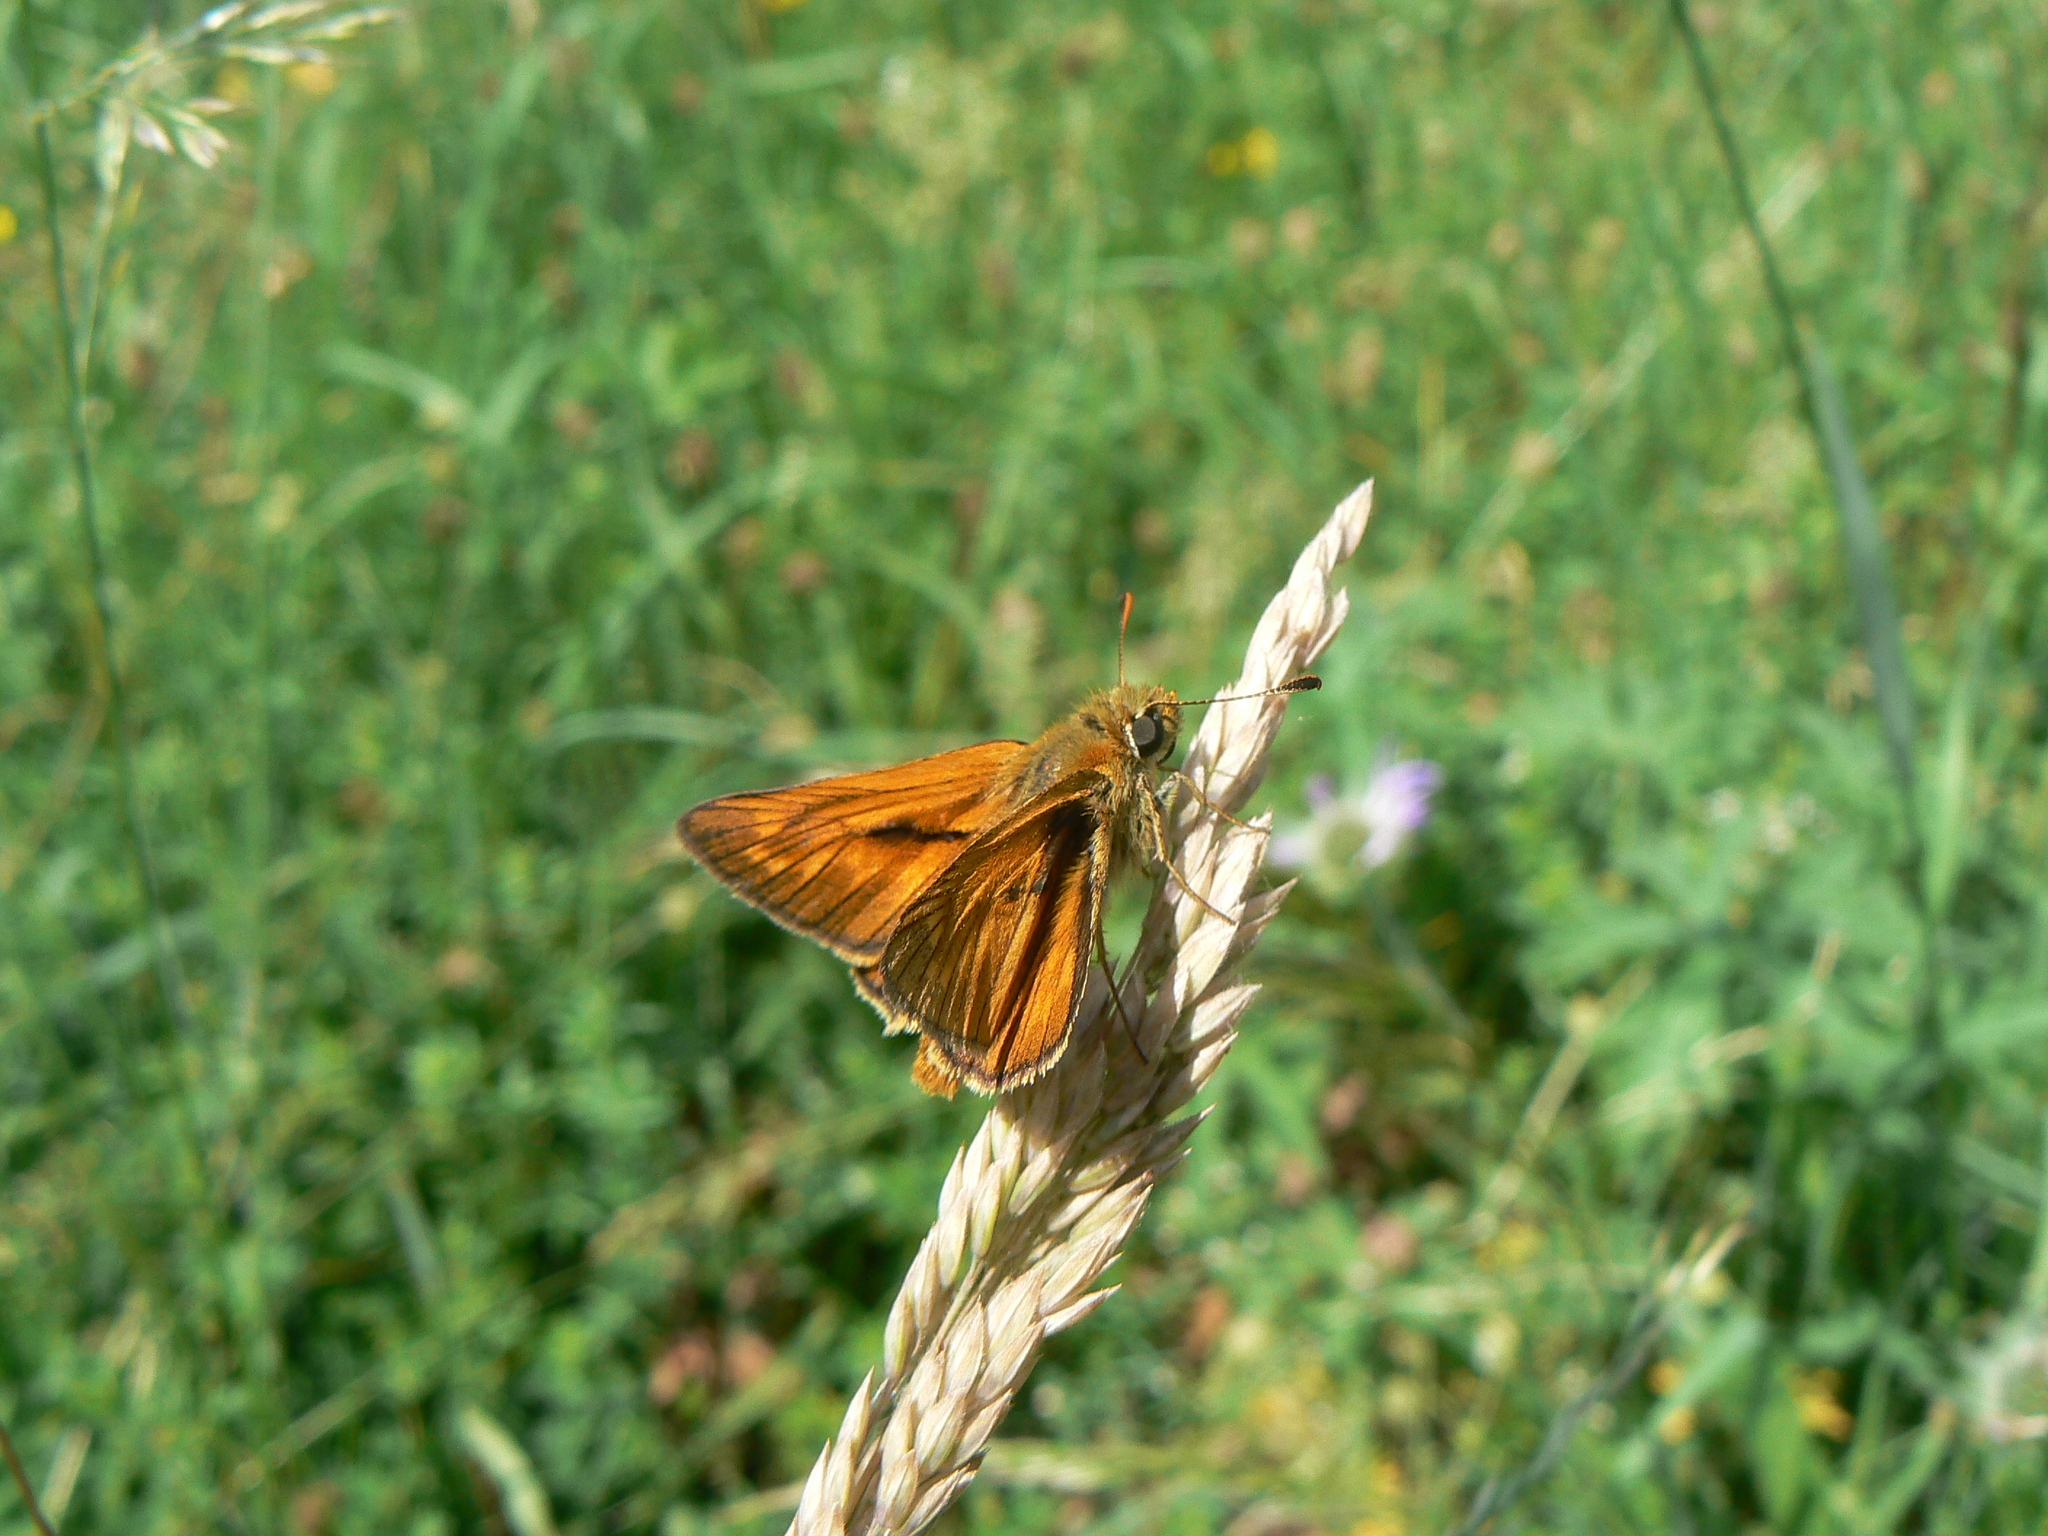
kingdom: Animalia
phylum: Arthropoda
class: Insecta
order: Lepidoptera
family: Hesperiidae
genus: Ochlodes
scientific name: Ochlodes venata
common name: Large skipper
